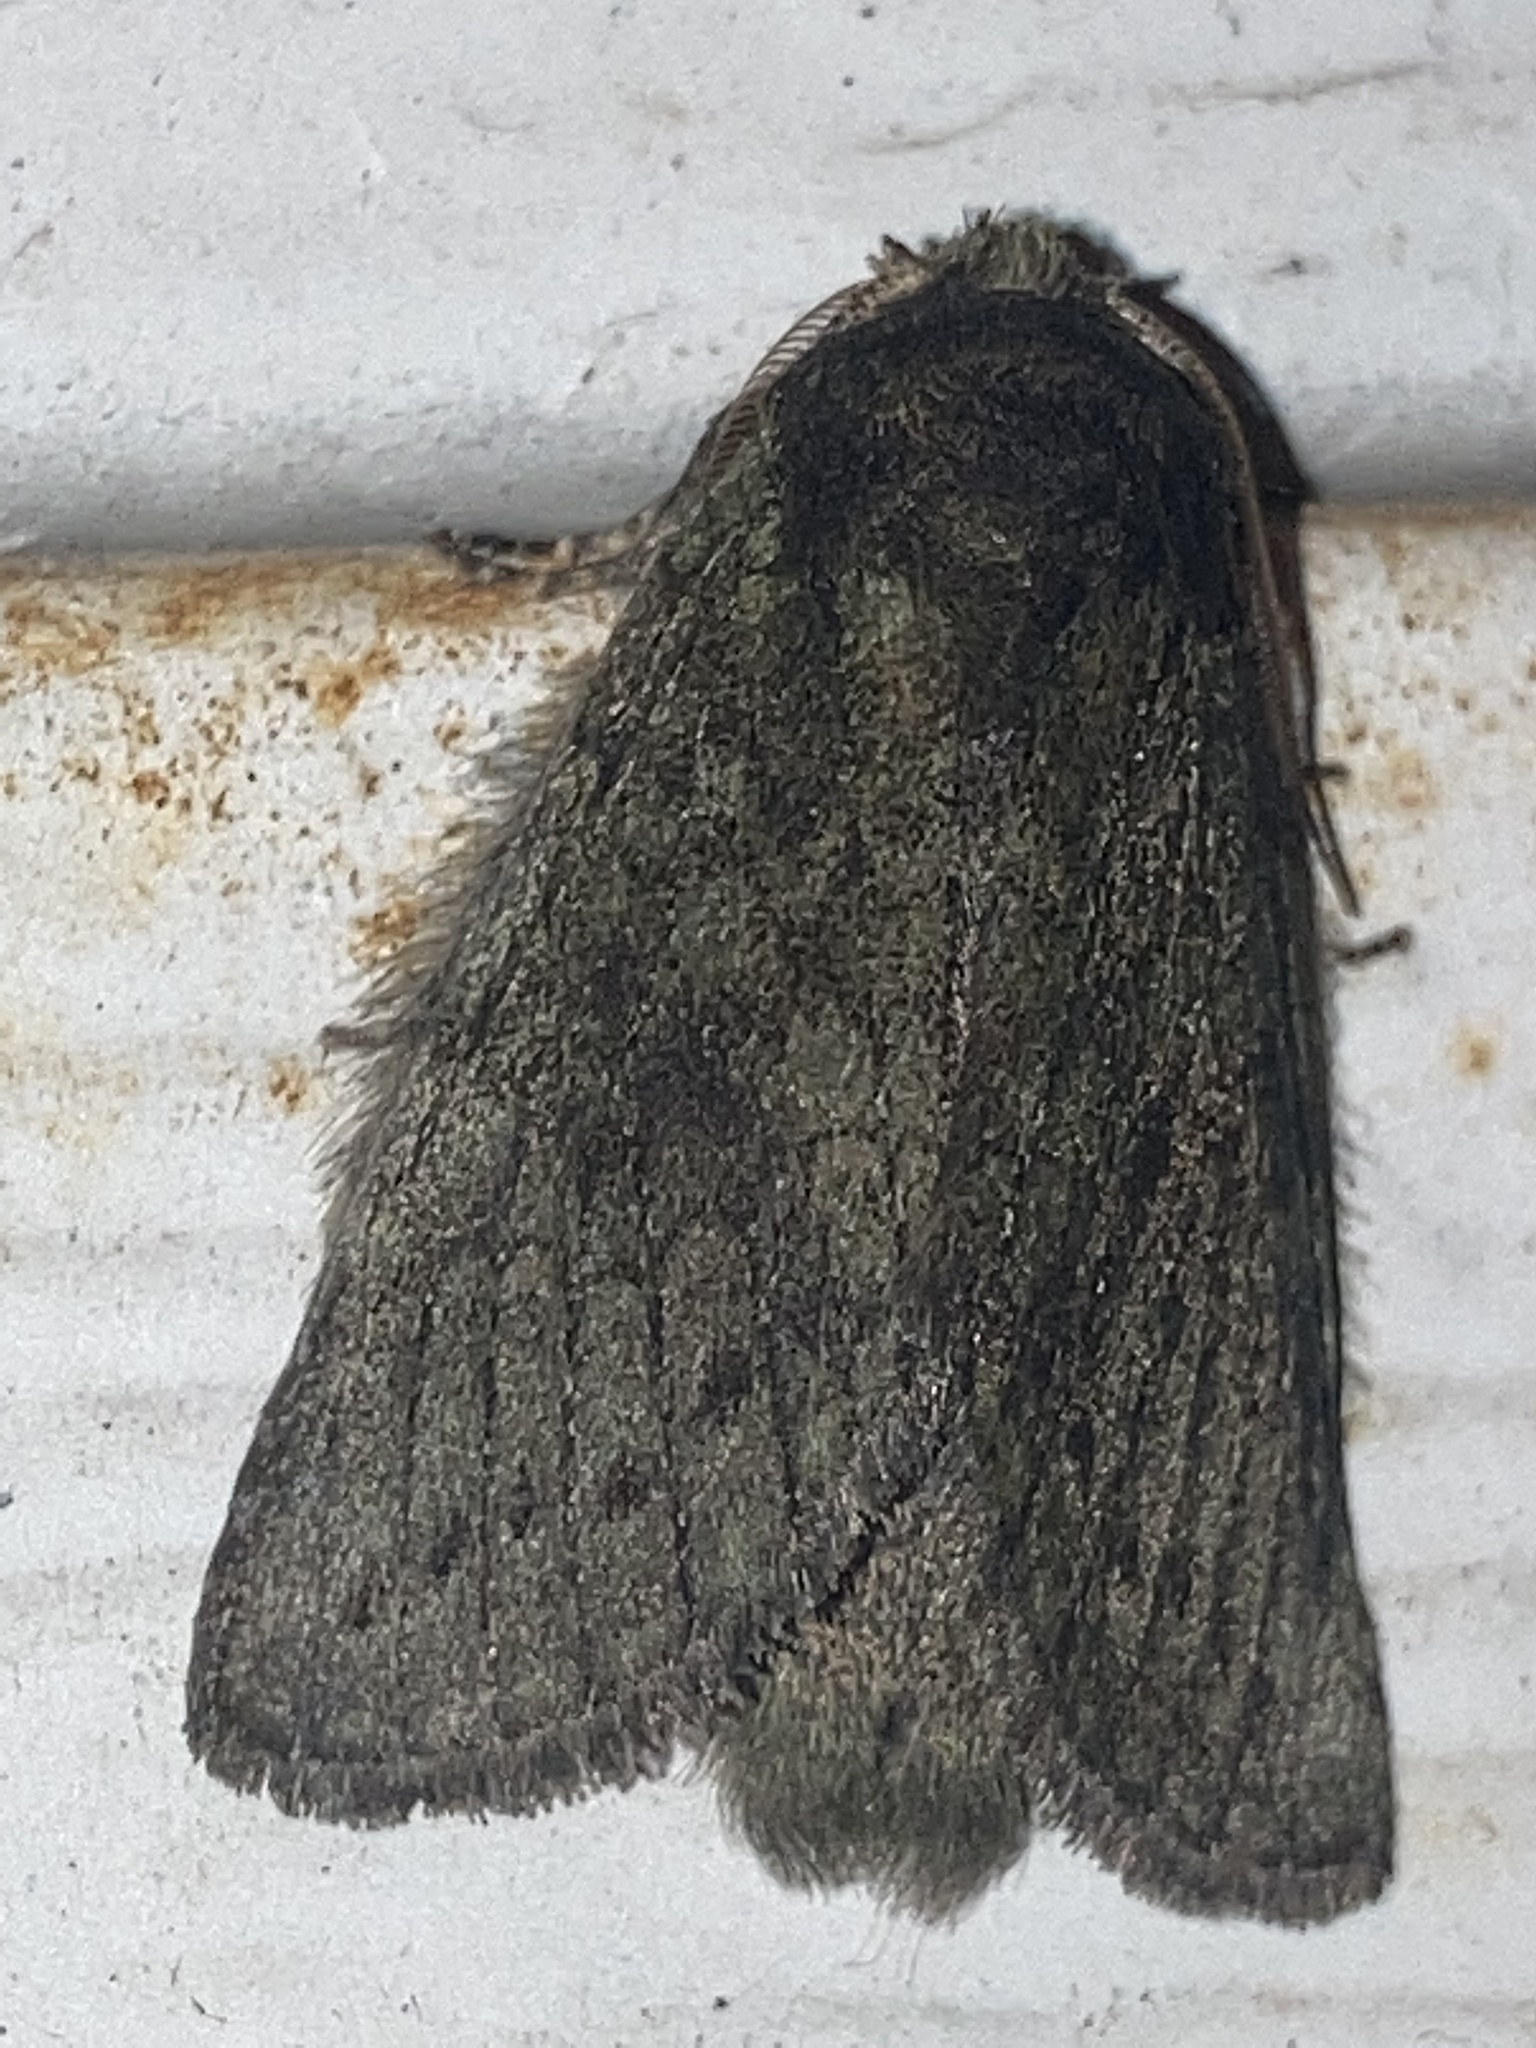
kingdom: Animalia
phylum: Arthropoda
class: Insecta
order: Lepidoptera
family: Notodontidae
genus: Disphragis
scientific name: Disphragis Cecrita guttivitta
